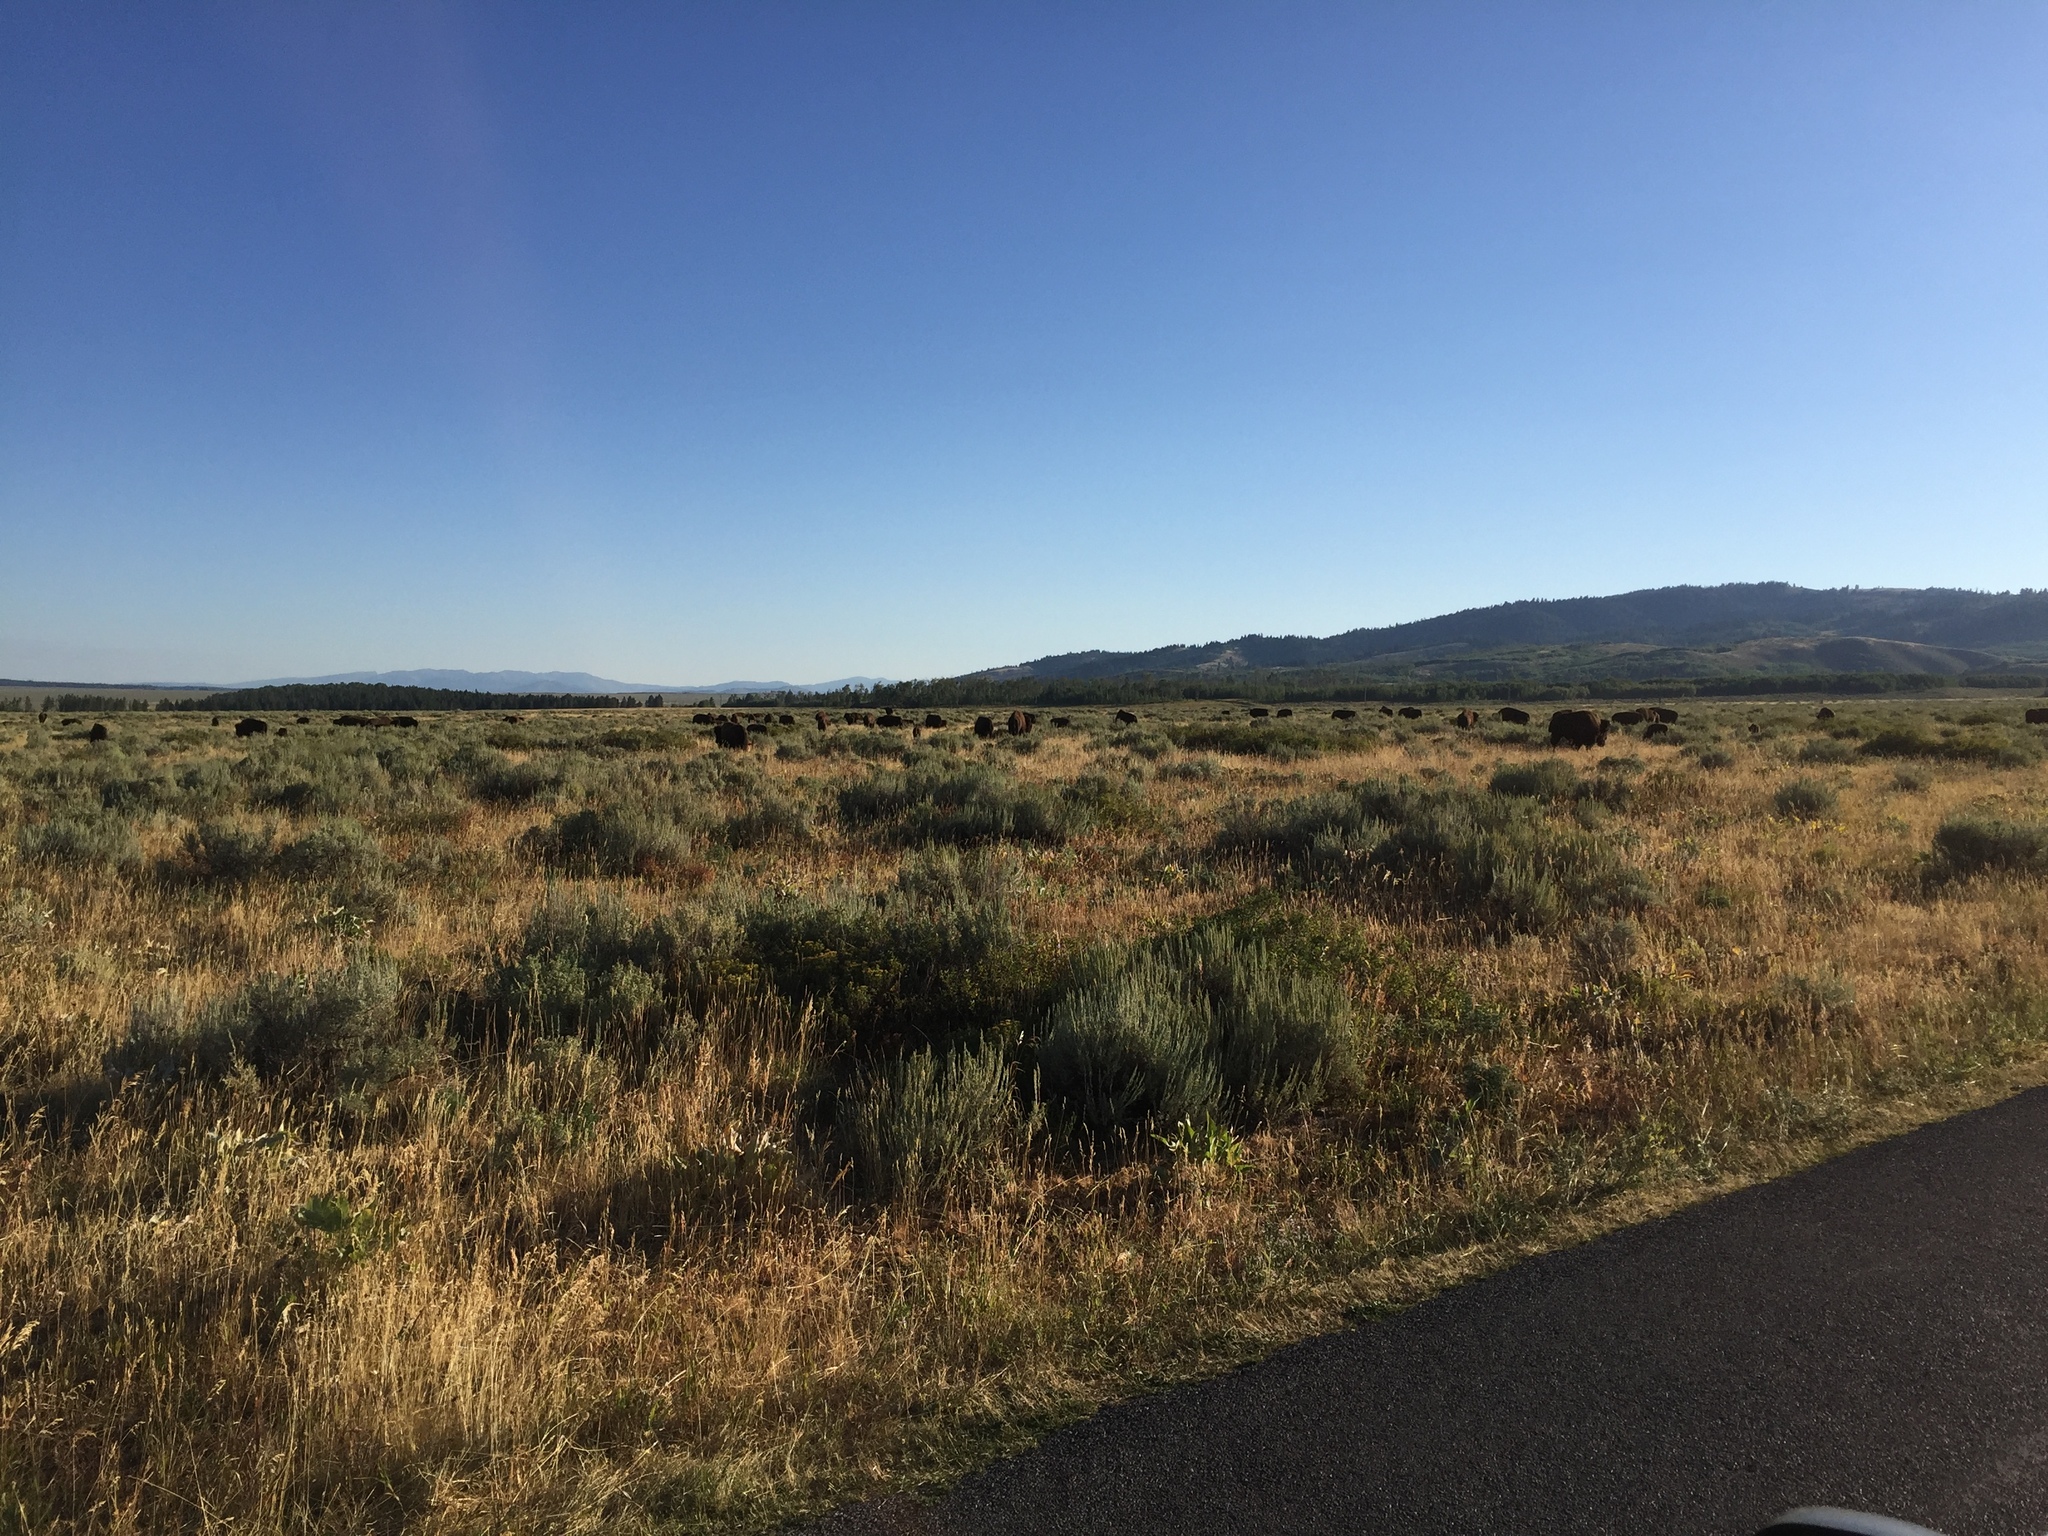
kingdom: Animalia
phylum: Chordata
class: Mammalia
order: Artiodactyla
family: Bovidae
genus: Bison
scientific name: Bison bison
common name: American bison
